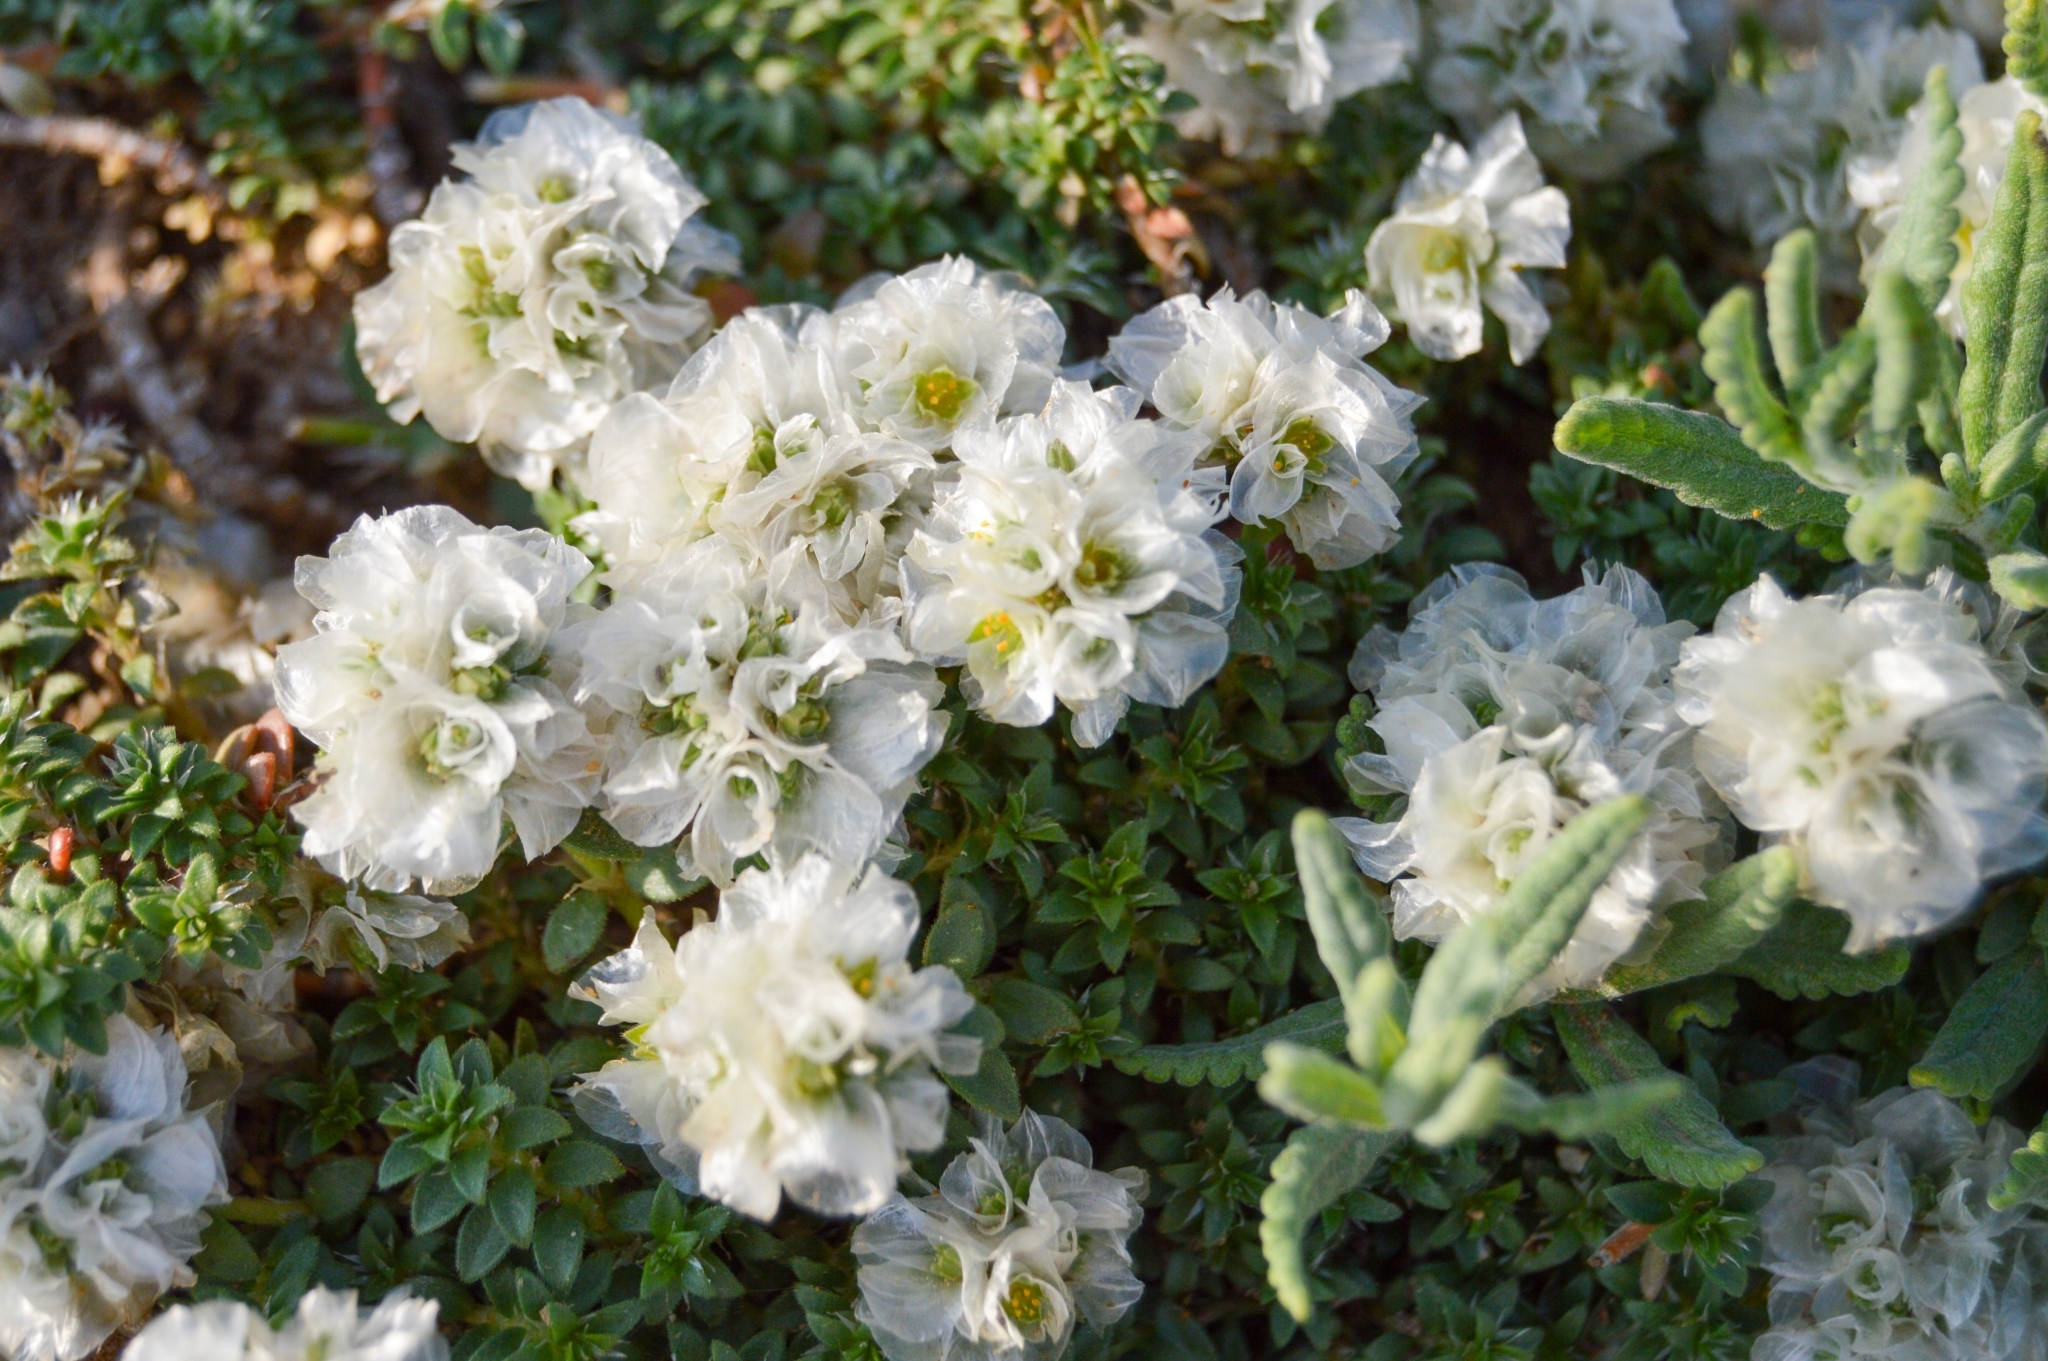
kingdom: Plantae
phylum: Tracheophyta
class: Magnoliopsida
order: Caryophyllales
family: Caryophyllaceae
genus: Paronychia
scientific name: Paronychia cephalotes
